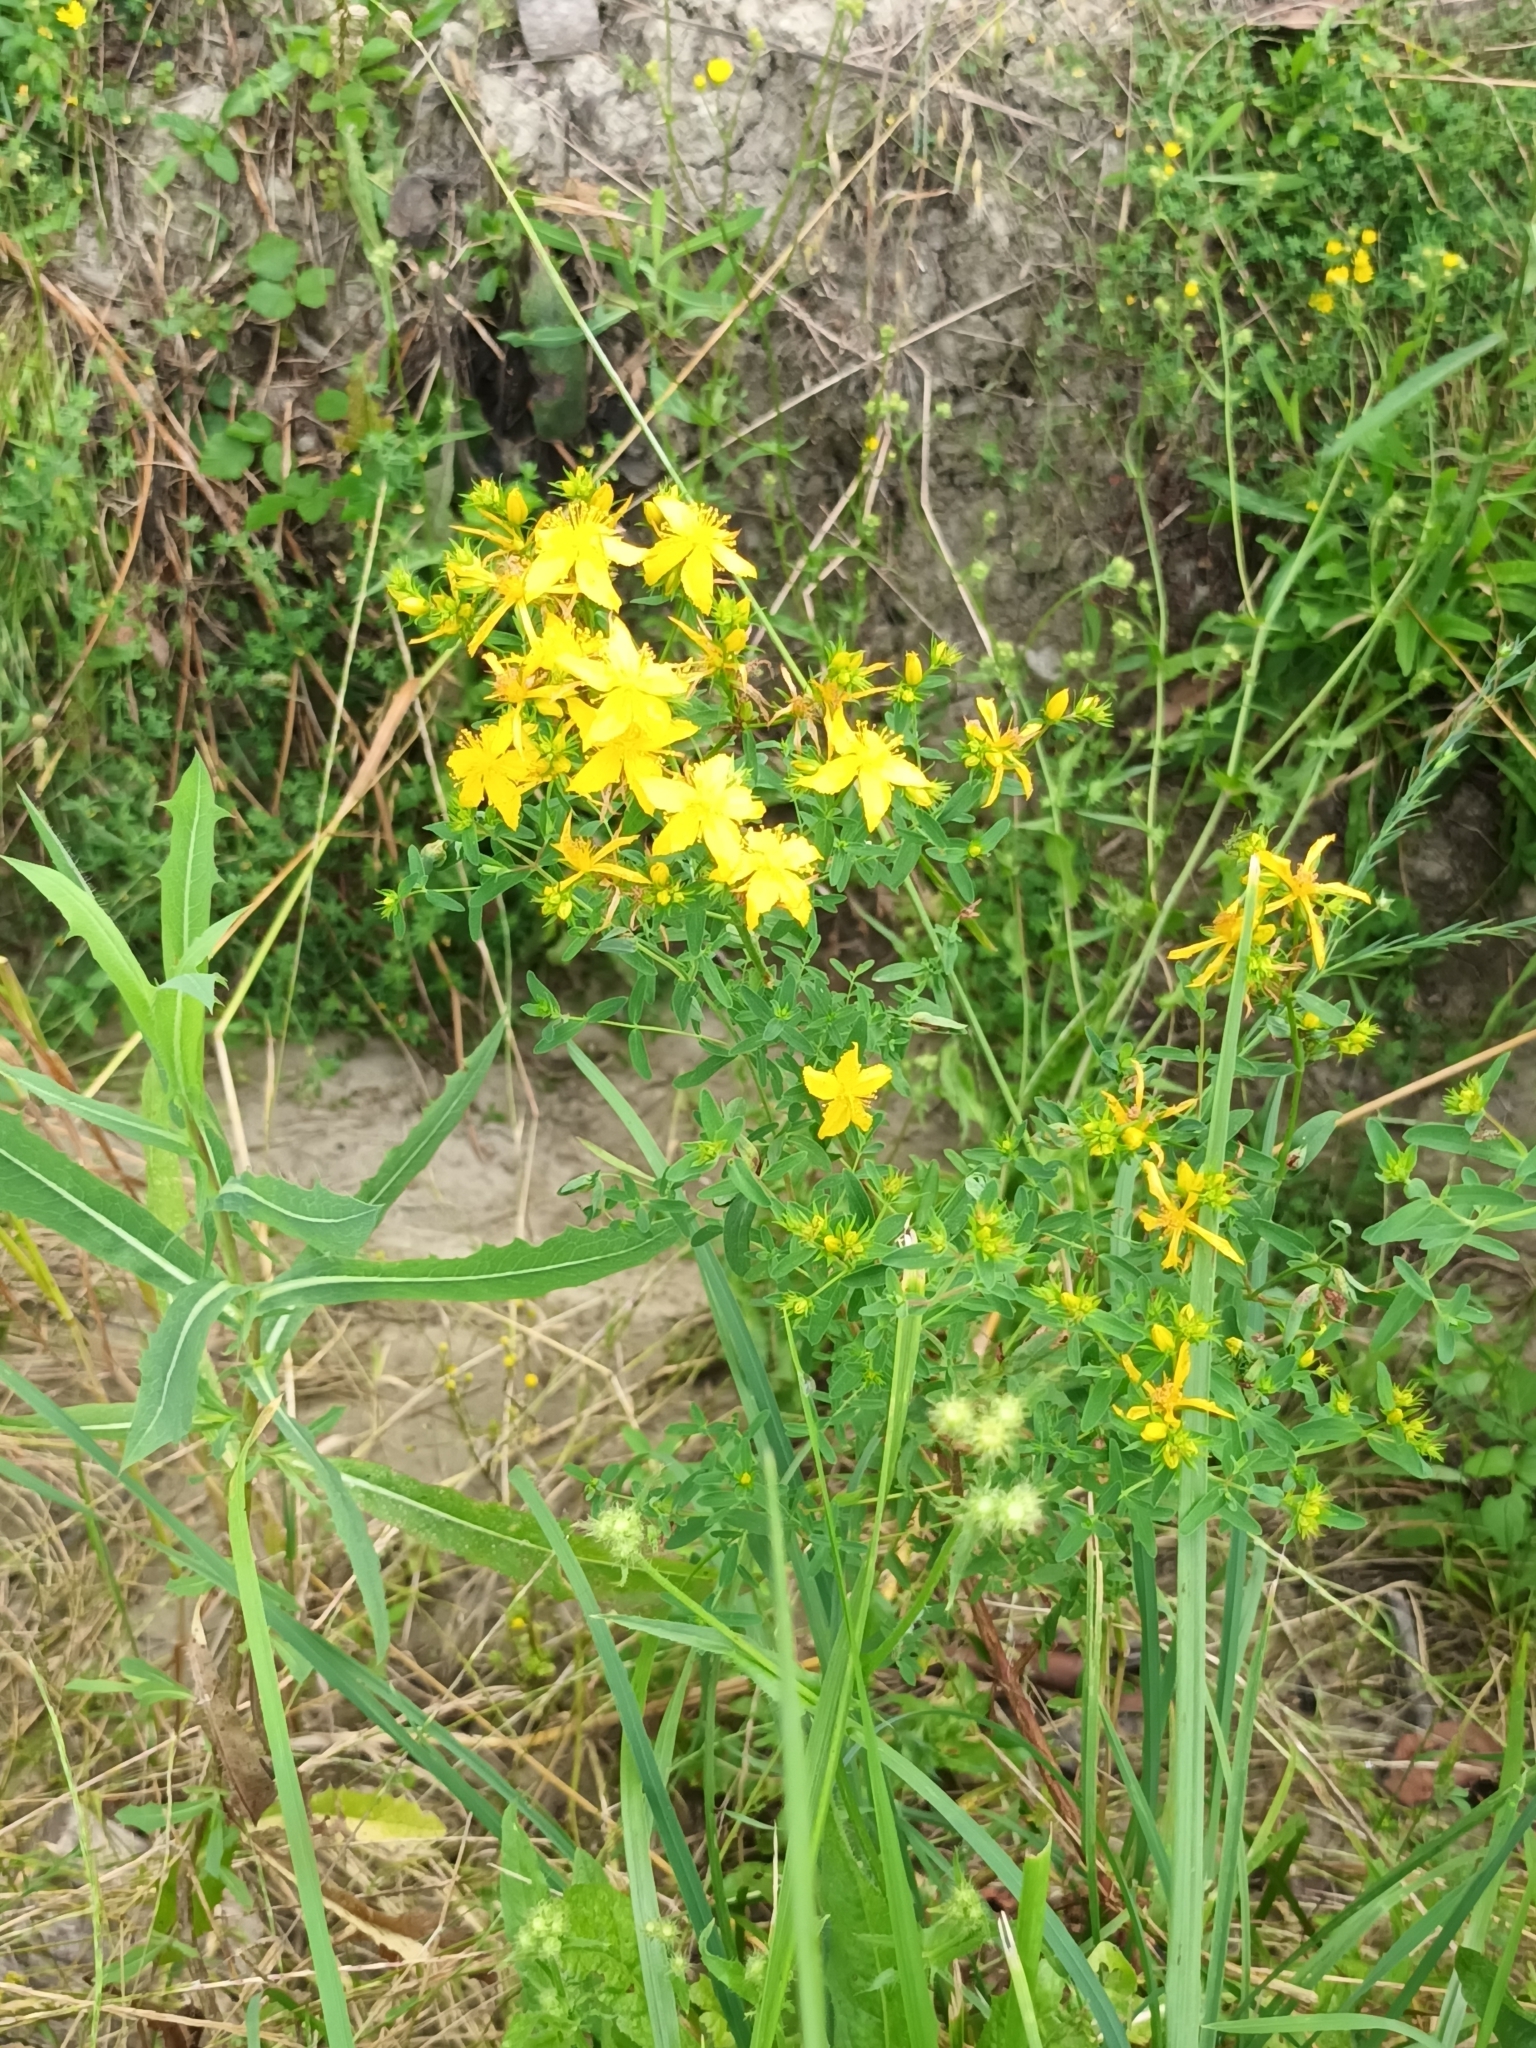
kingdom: Plantae
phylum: Tracheophyta
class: Magnoliopsida
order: Malpighiales
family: Hypericaceae
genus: Hypericum
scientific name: Hypericum perforatum
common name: Common st. johnswort
